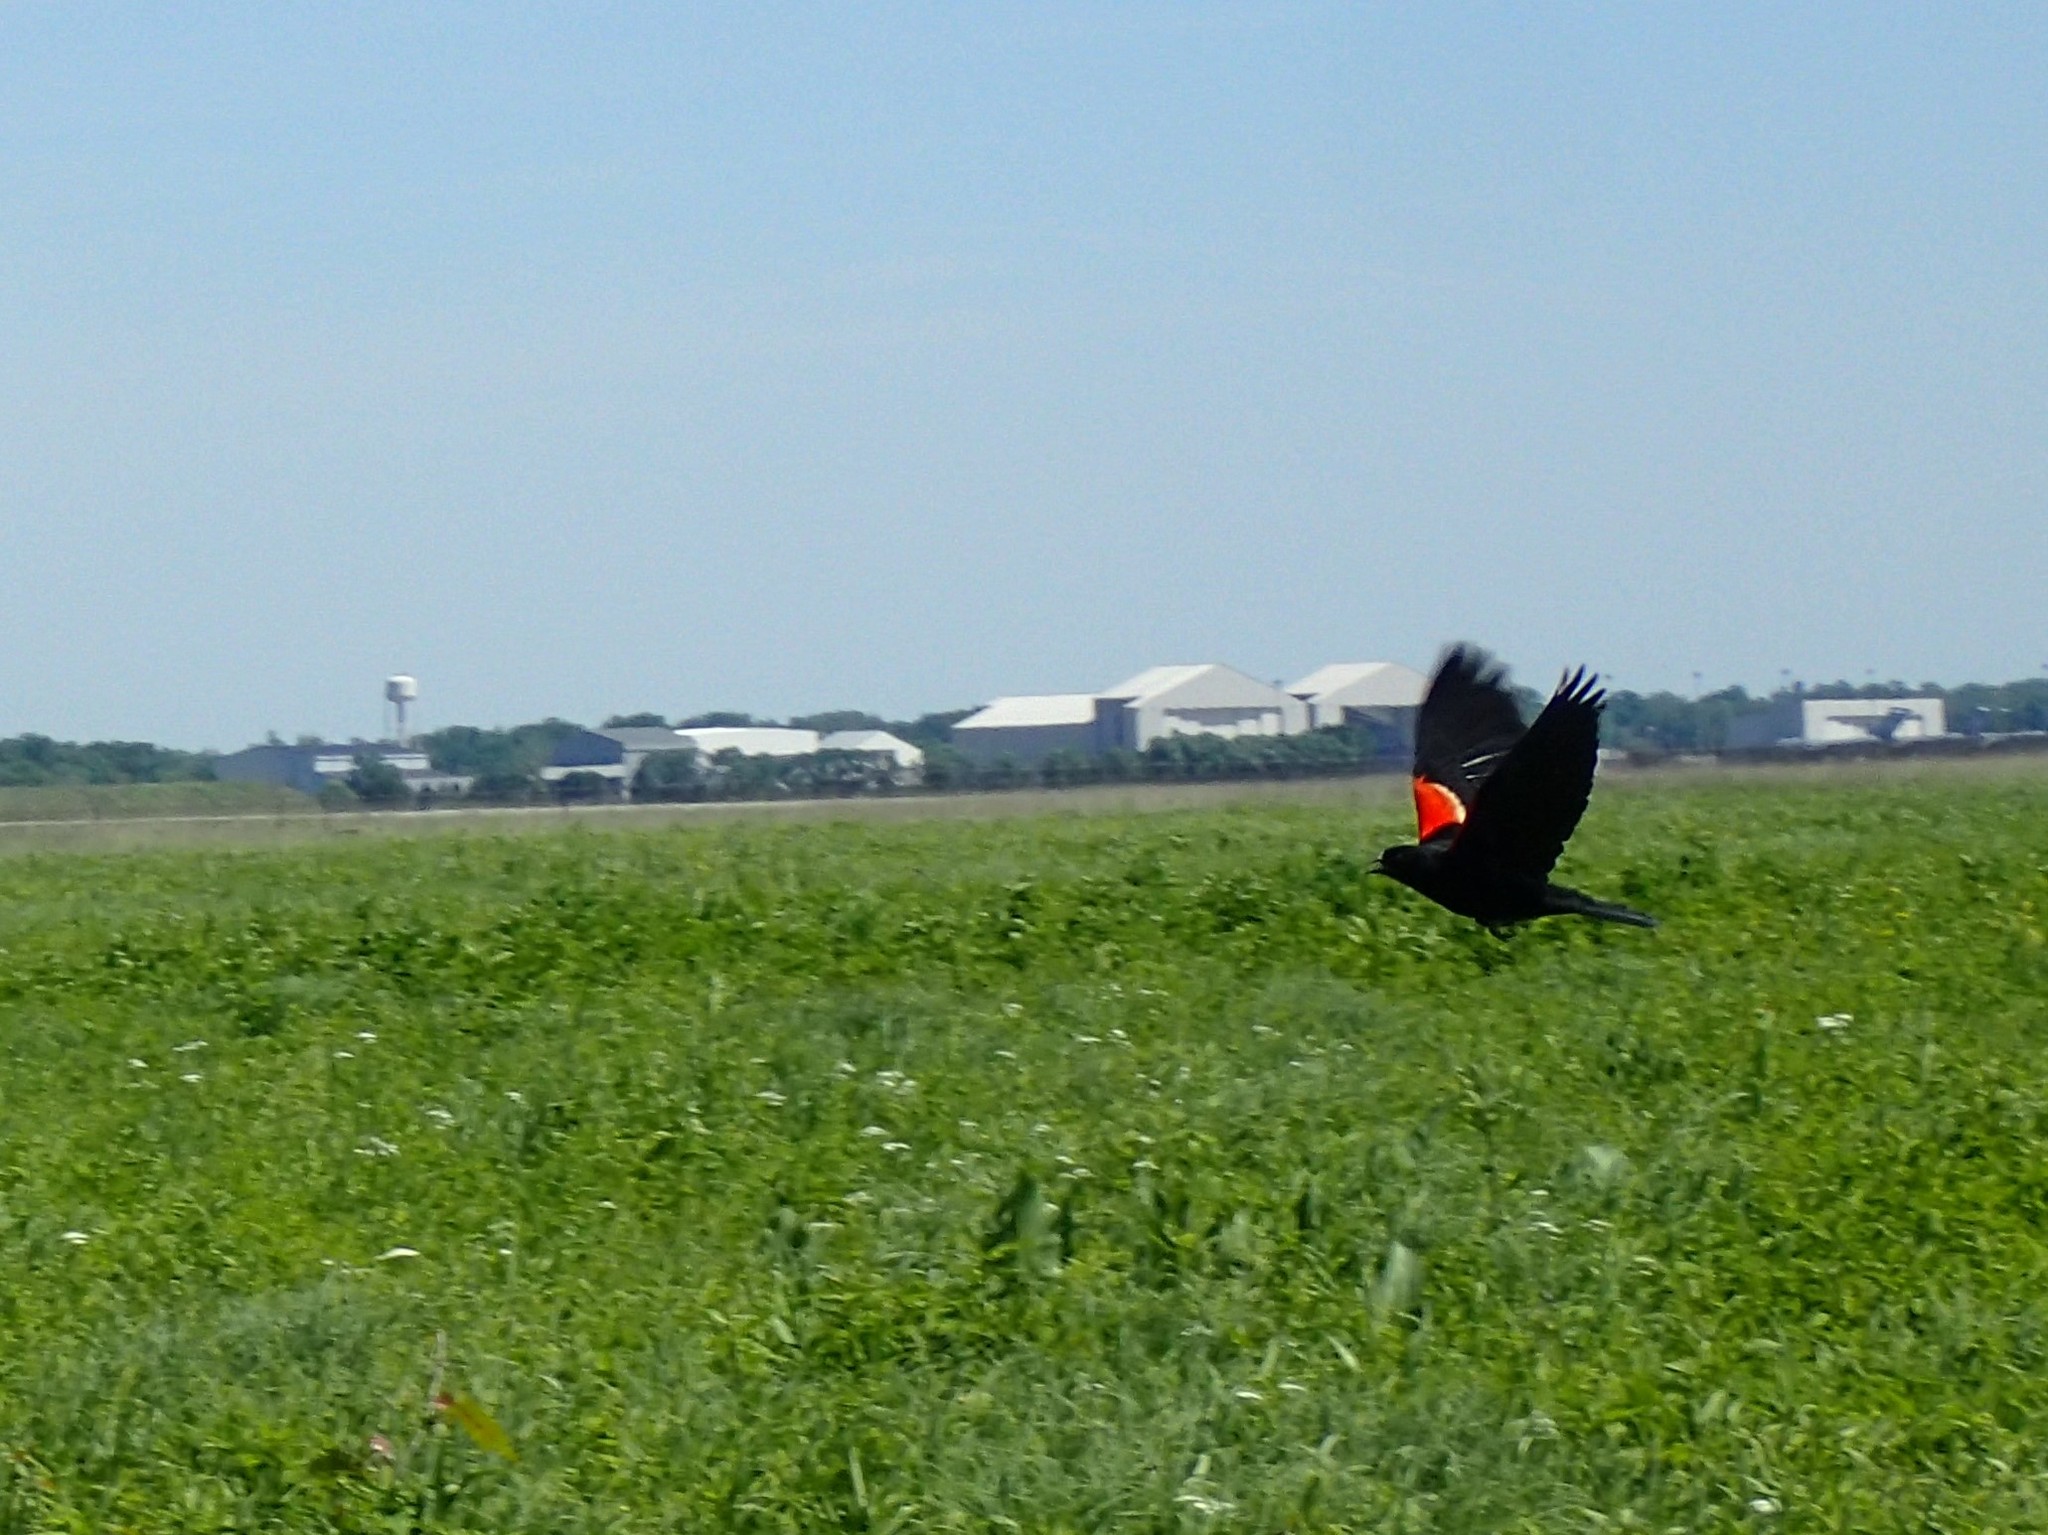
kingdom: Animalia
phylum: Chordata
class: Aves
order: Passeriformes
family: Icteridae
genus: Agelaius
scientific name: Agelaius phoeniceus
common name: Red-winged blackbird
